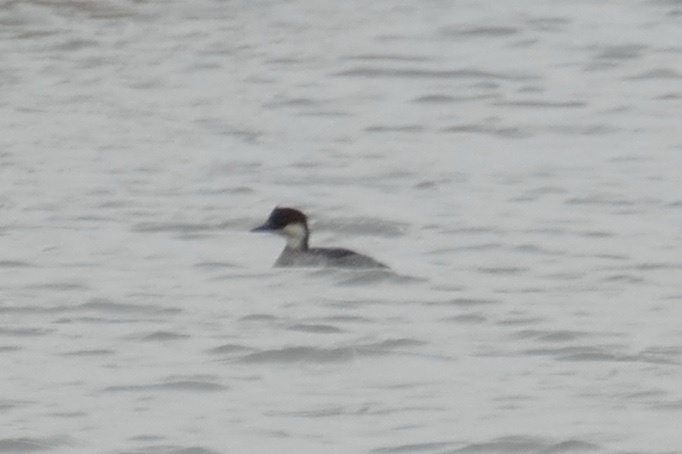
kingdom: Animalia
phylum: Chordata
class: Aves
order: Anseriformes
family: Anatidae
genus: Mergellus
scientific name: Mergellus albellus
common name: Smew
